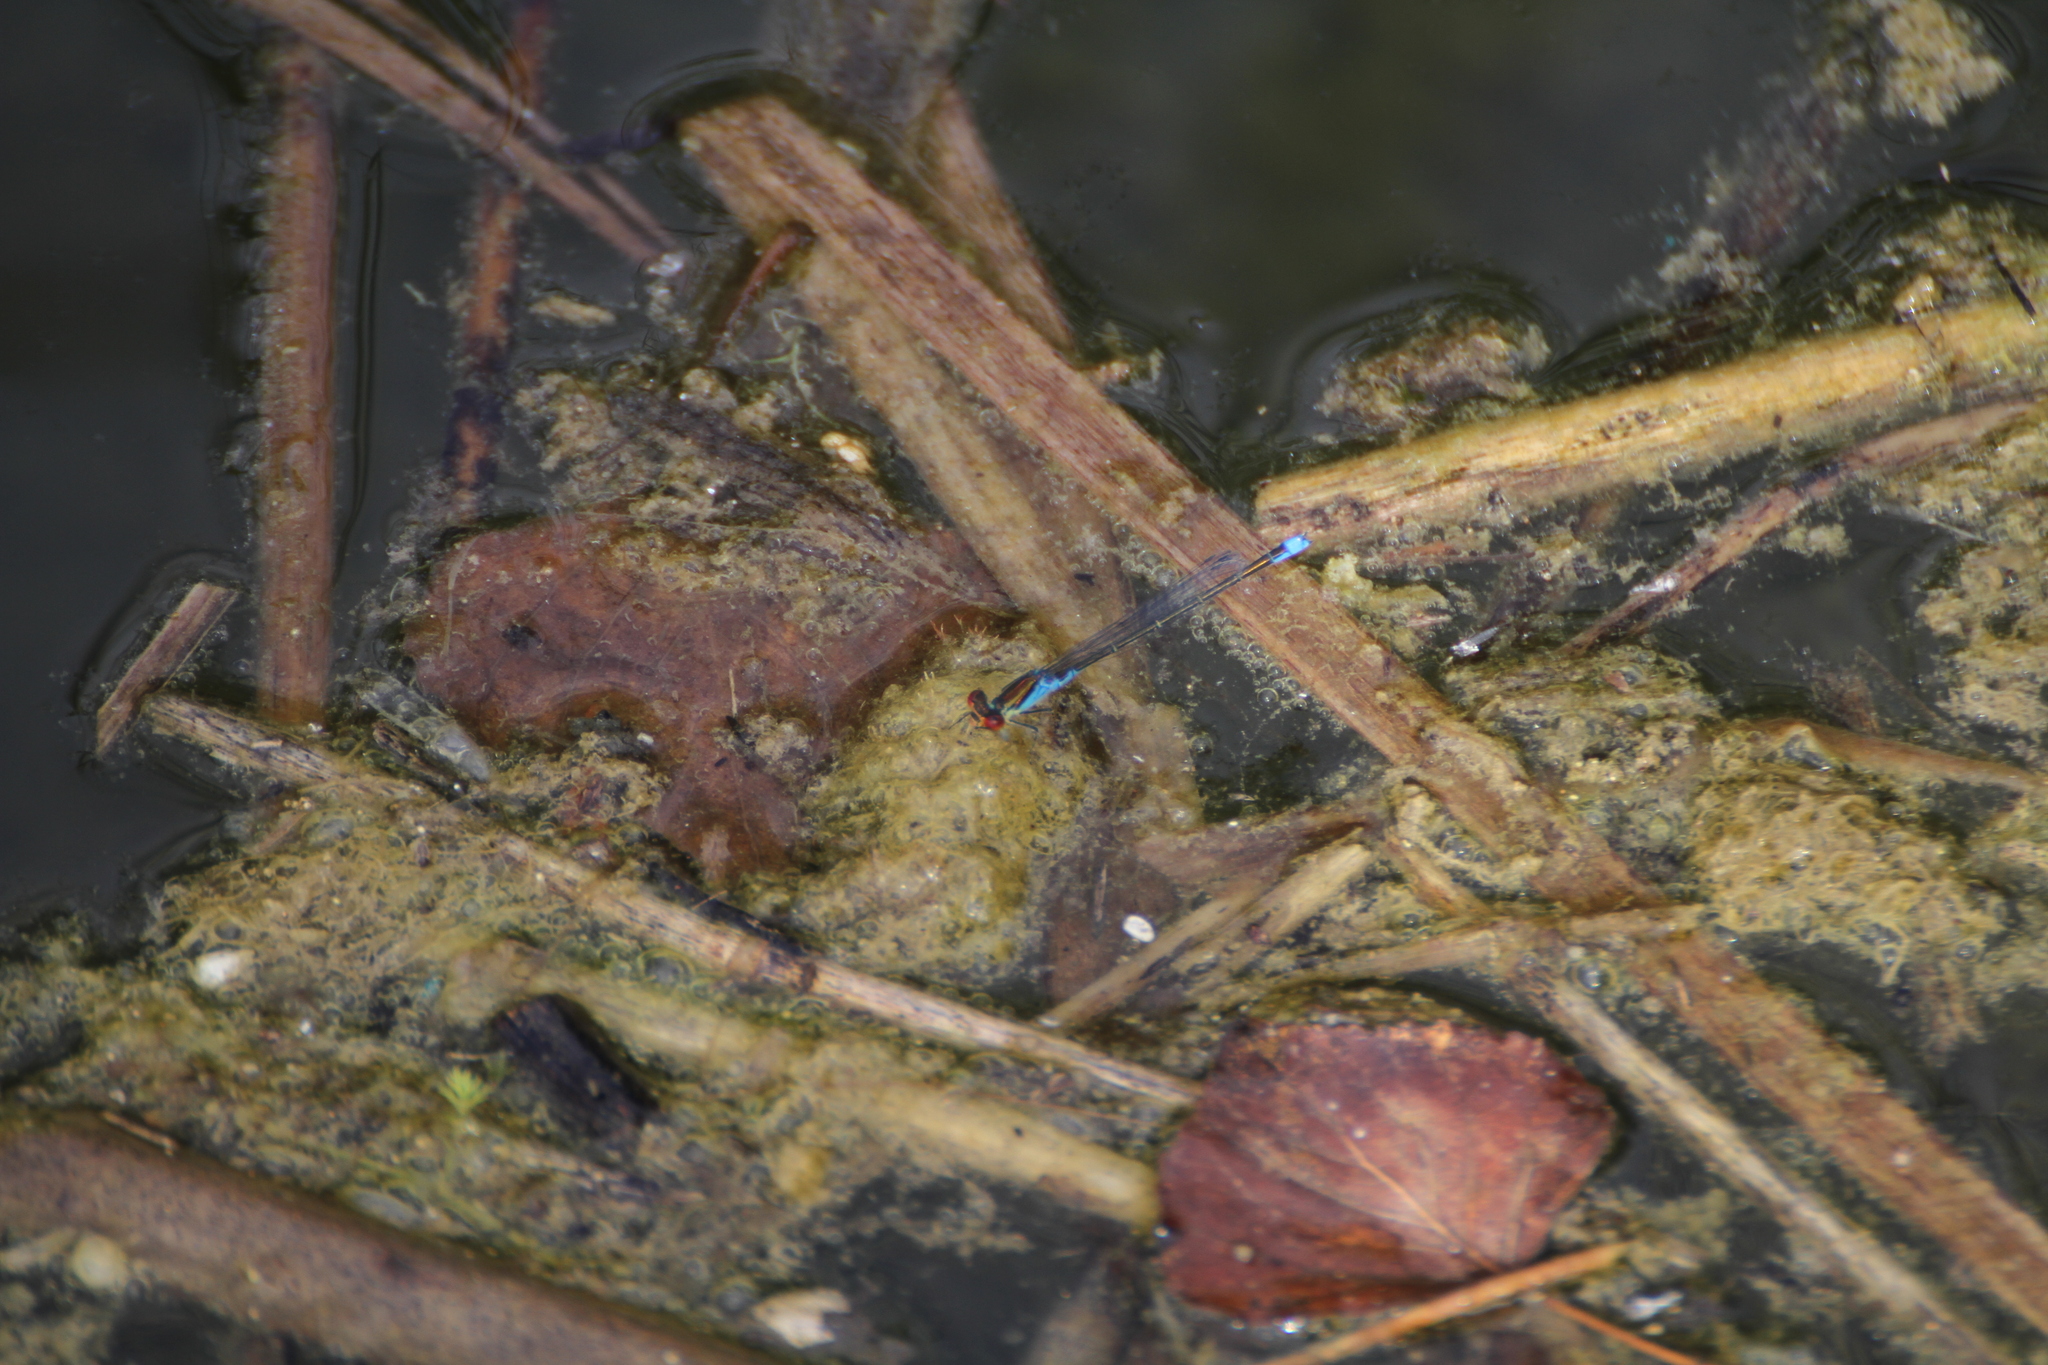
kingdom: Animalia
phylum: Arthropoda
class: Insecta
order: Odonata
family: Coenagrionidae
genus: Erythromma
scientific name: Erythromma viridulum
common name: Small red-eyed damselfly
